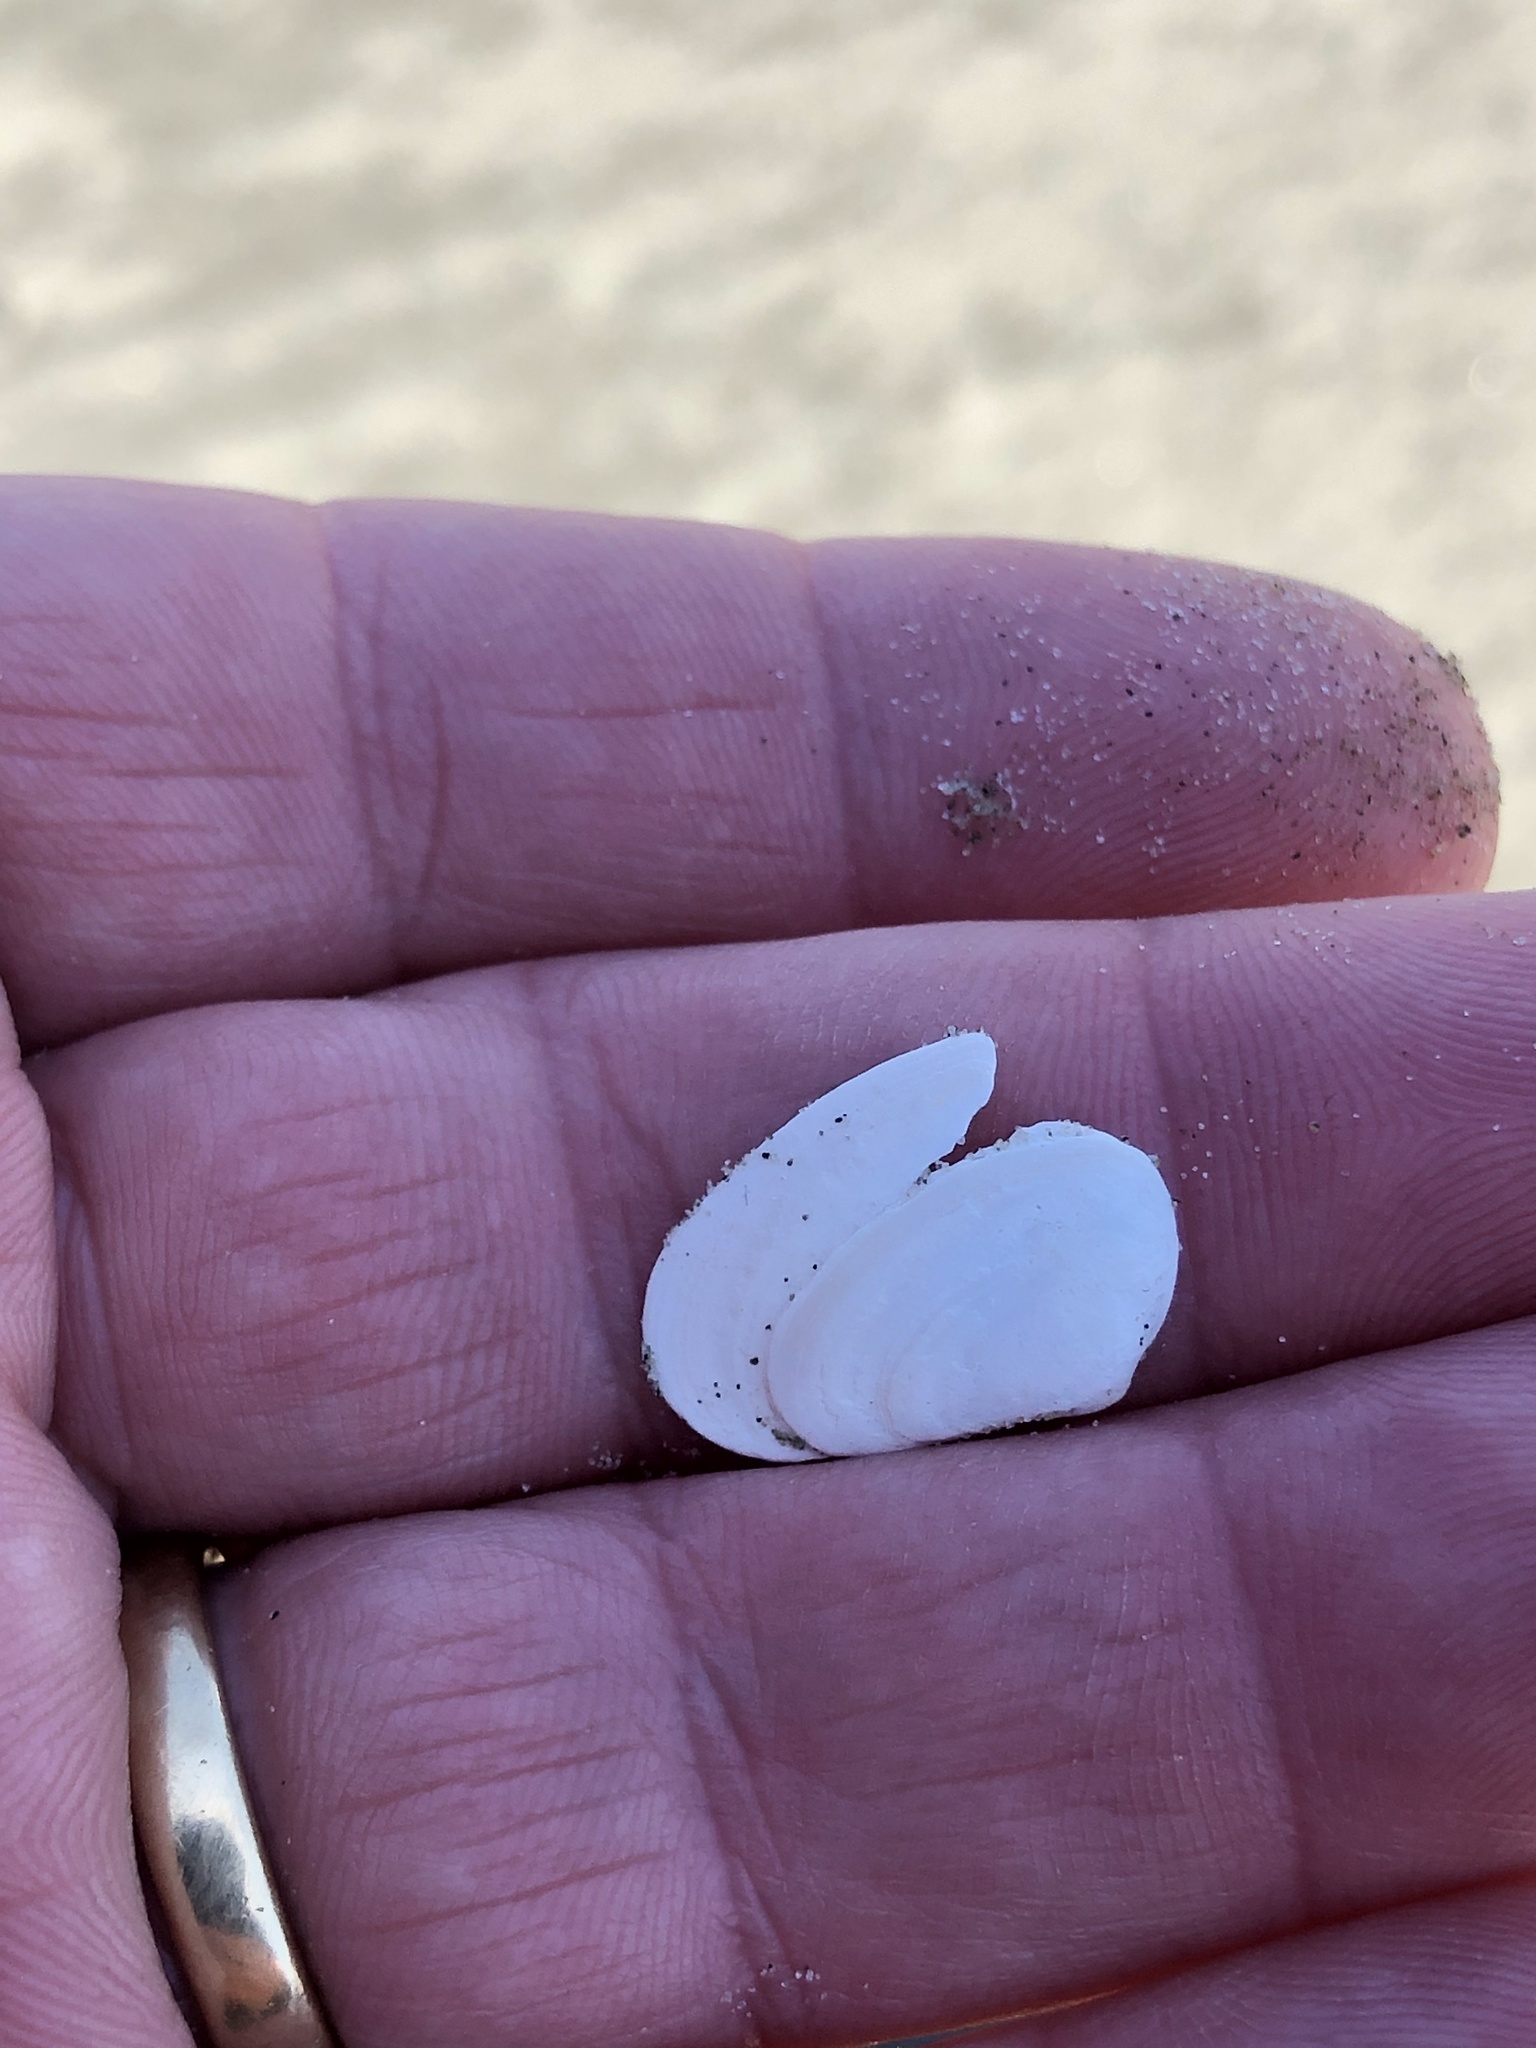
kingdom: Animalia
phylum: Mollusca
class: Bivalvia
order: Venerida
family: Mesodesmatidae
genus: Paphies
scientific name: Paphies donacina
